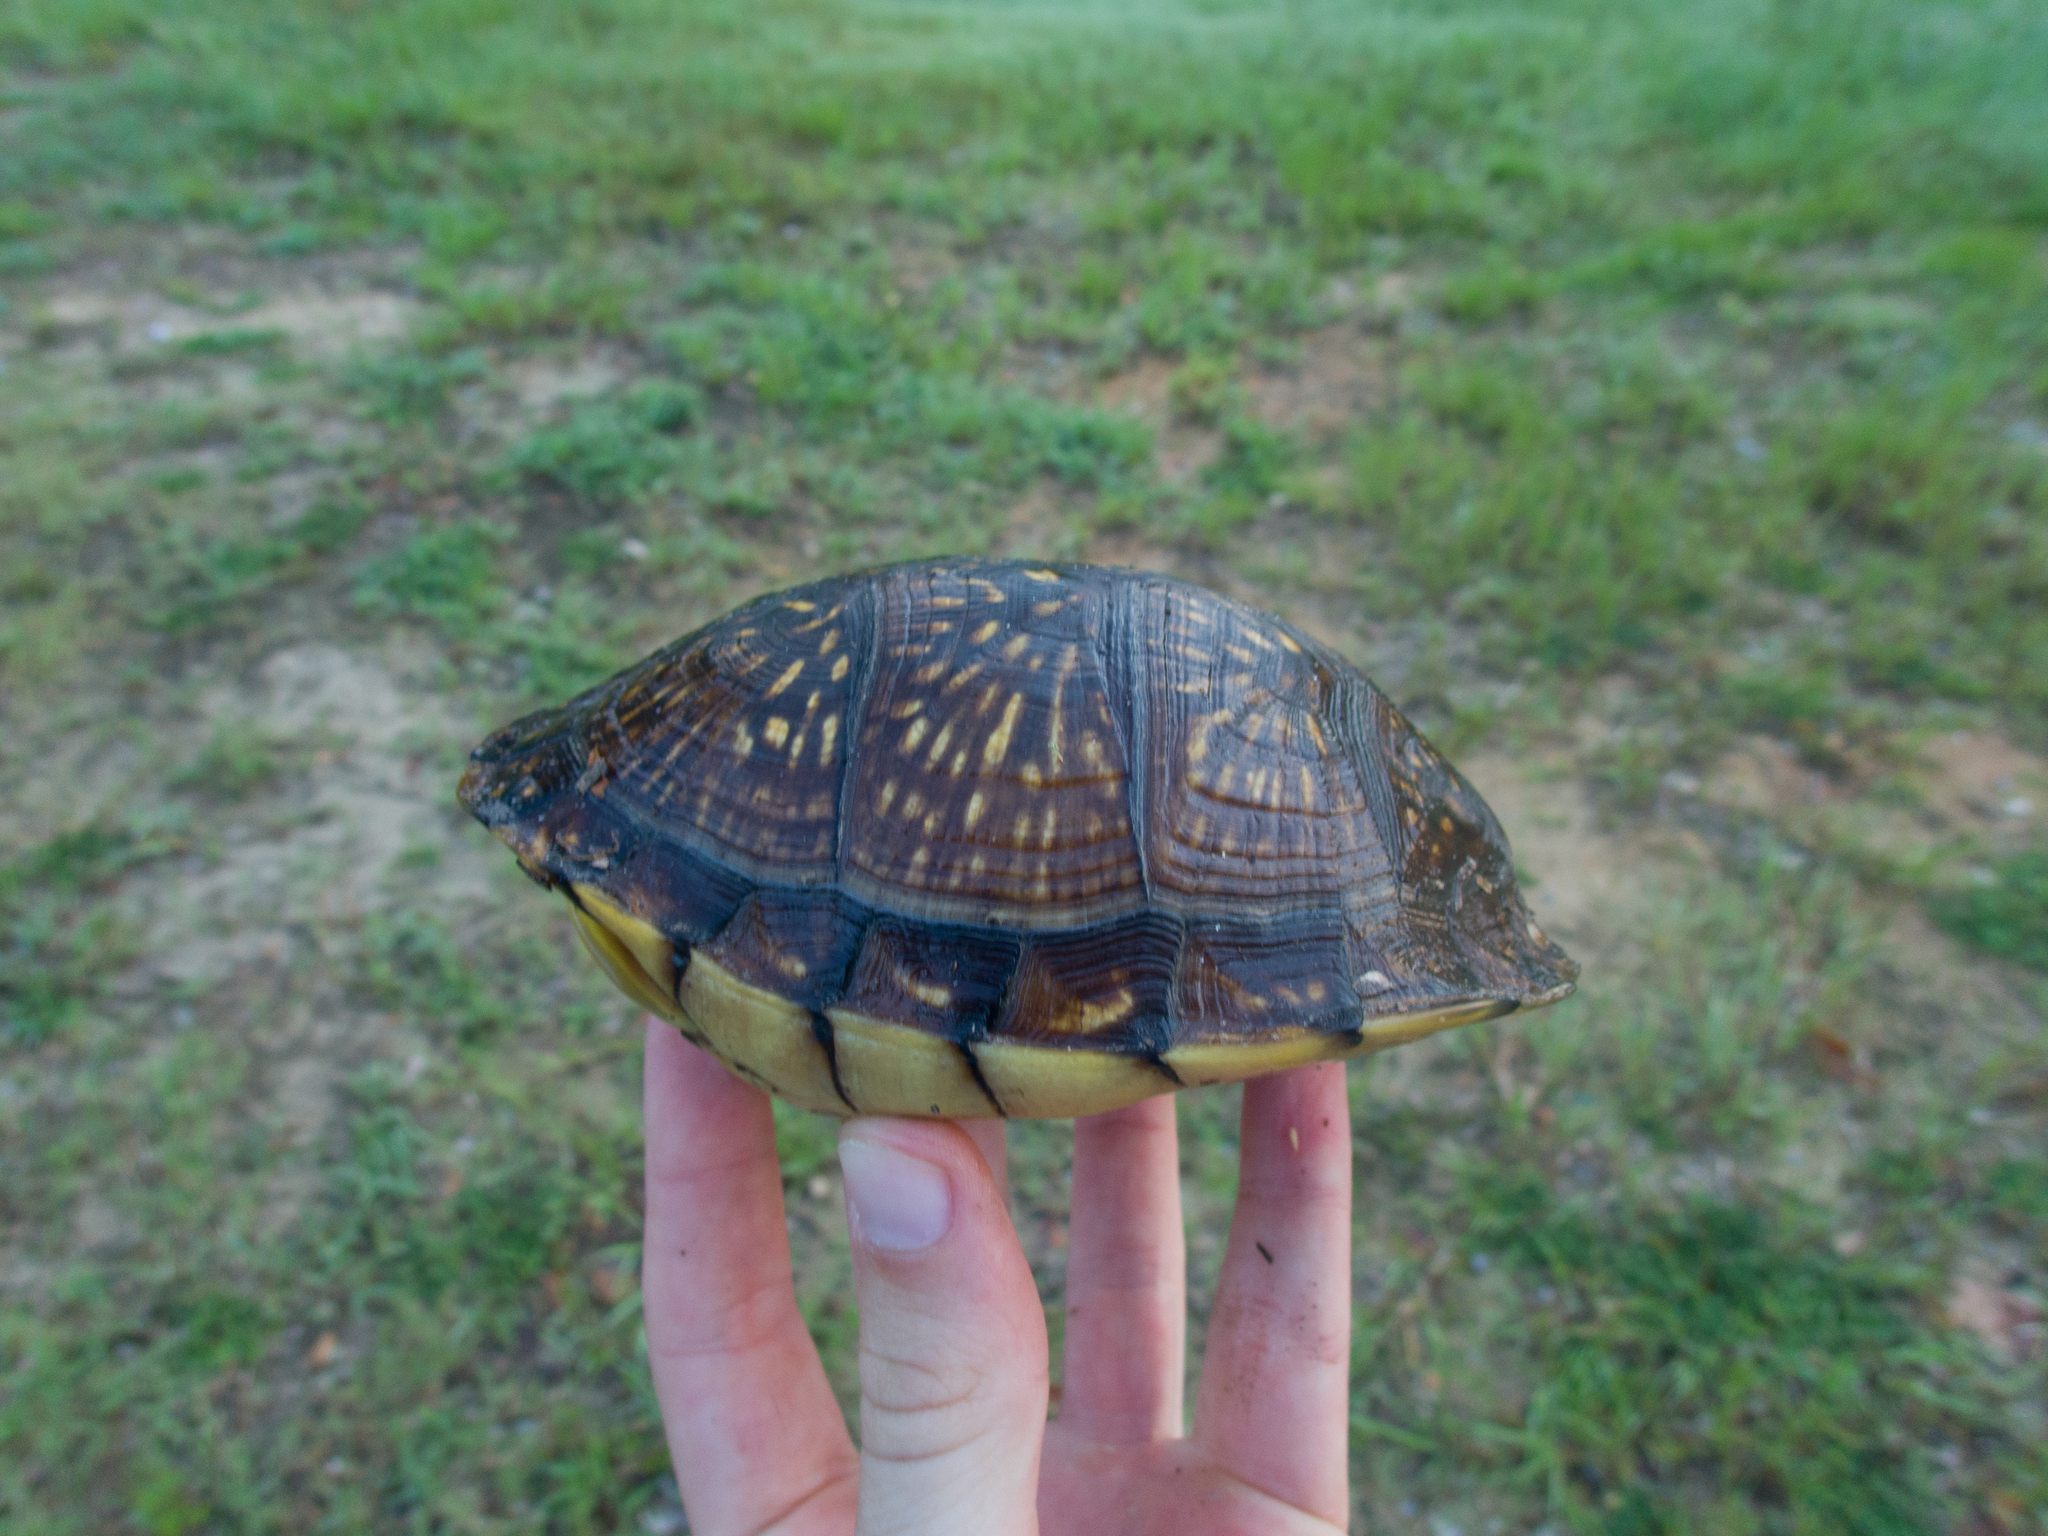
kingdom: Animalia
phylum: Chordata
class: Testudines
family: Emydidae
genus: Terrapene
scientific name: Terrapene carolina
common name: Common box turtle
